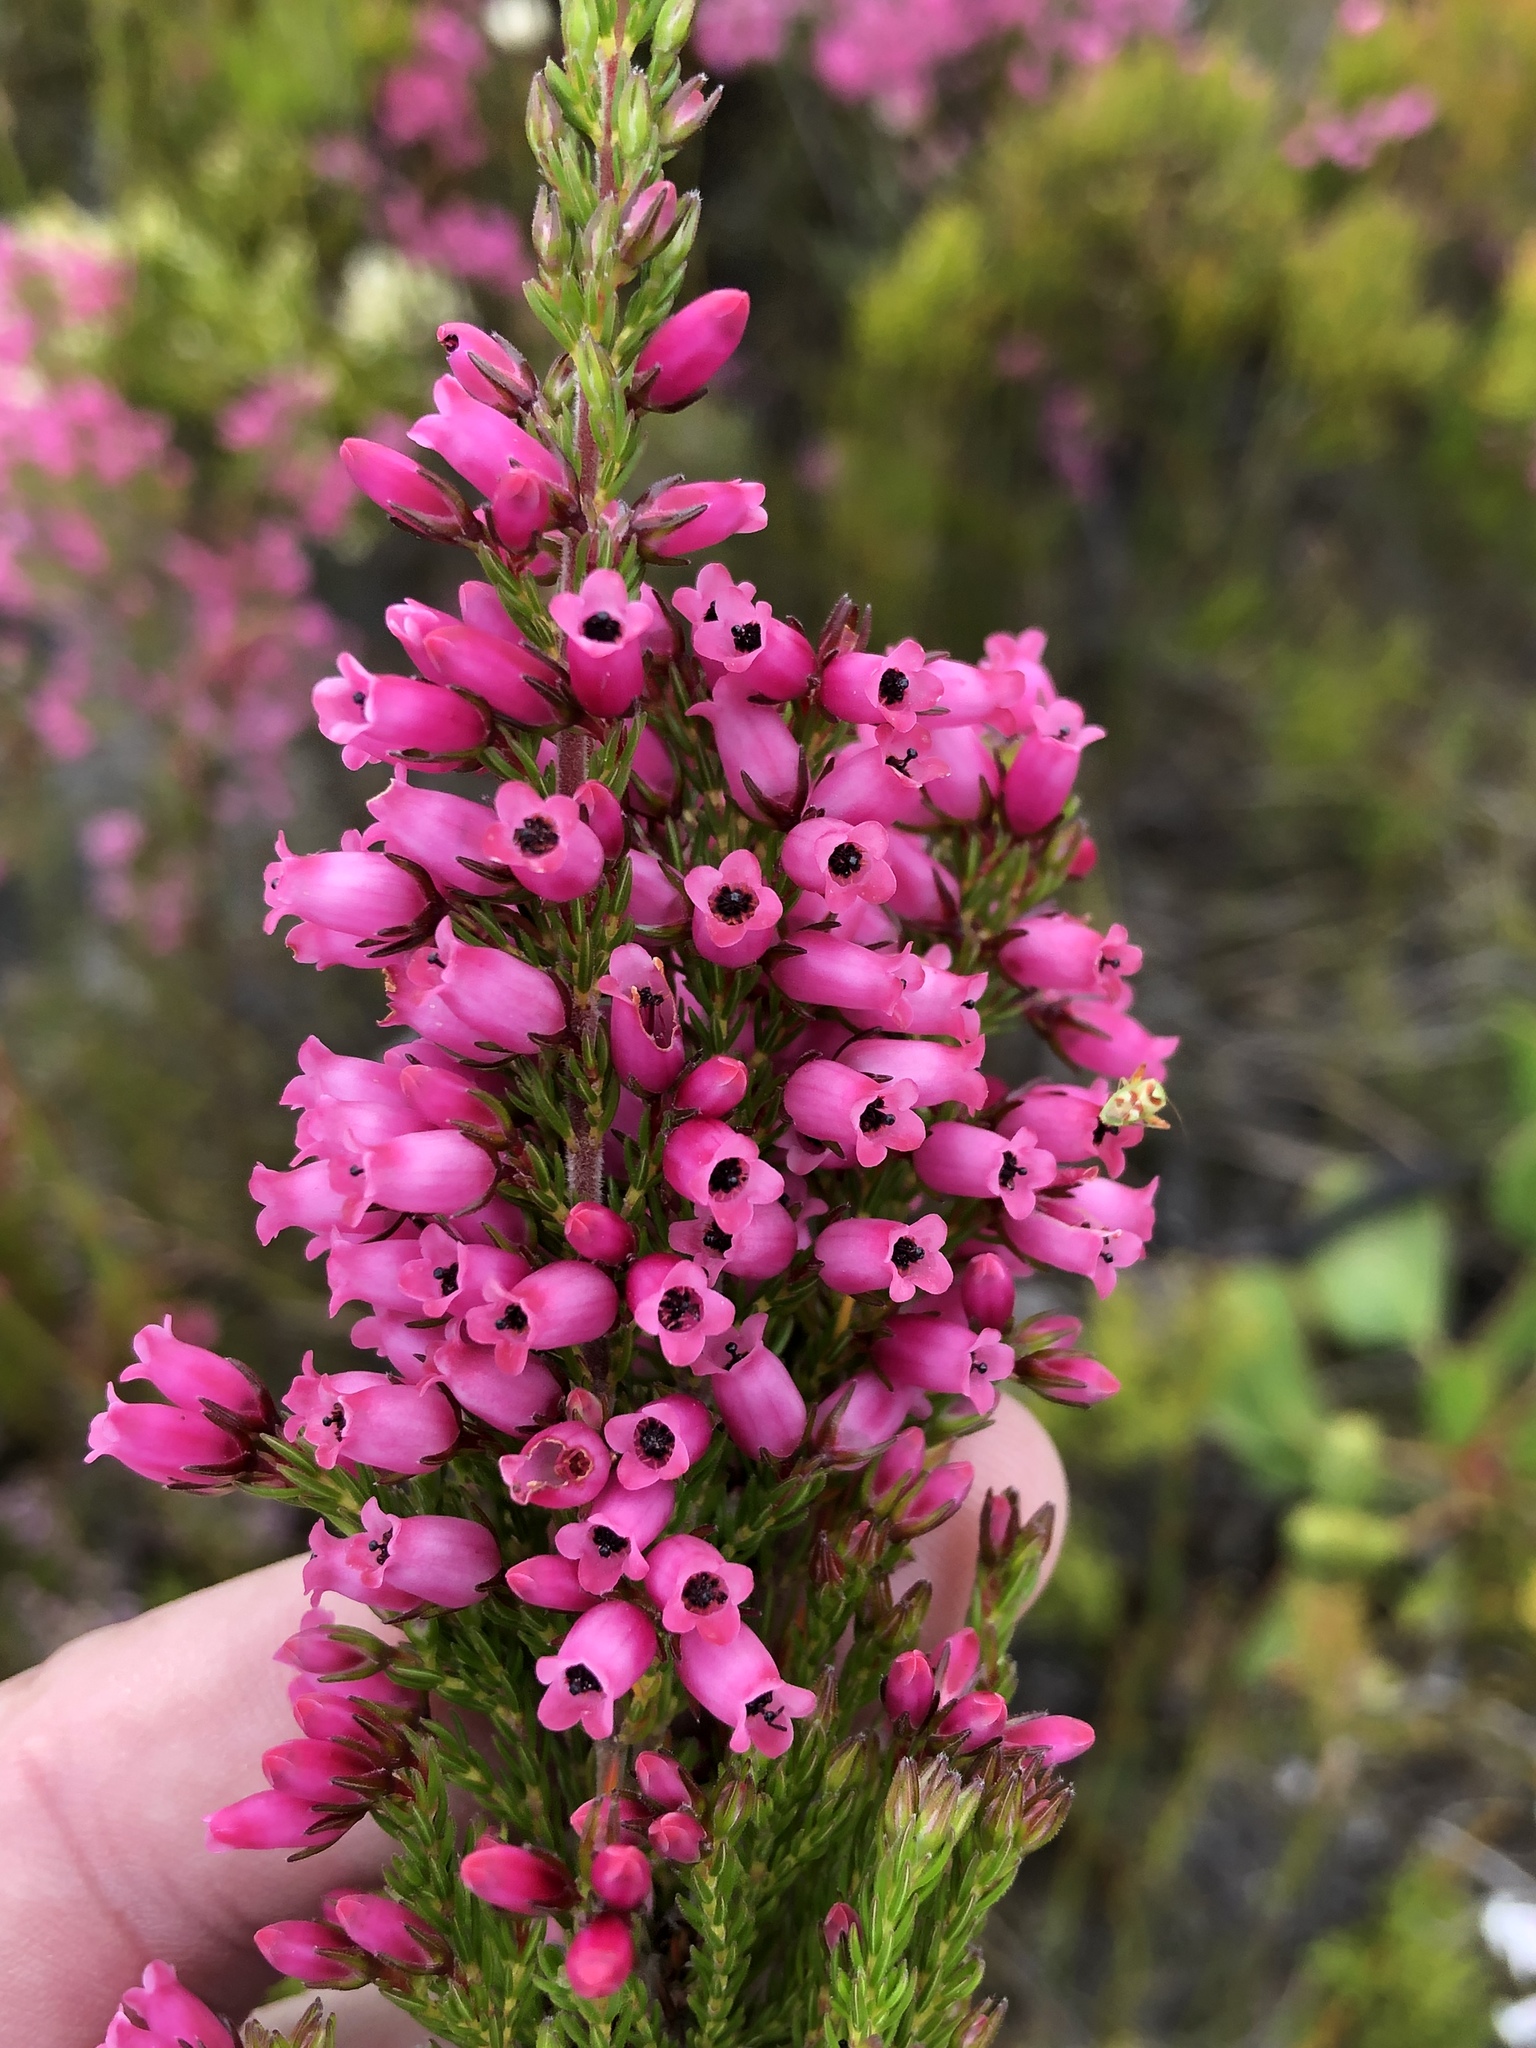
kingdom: Plantae
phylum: Tracheophyta
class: Magnoliopsida
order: Ericales
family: Ericaceae
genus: Erica
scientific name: Erica sitiens
